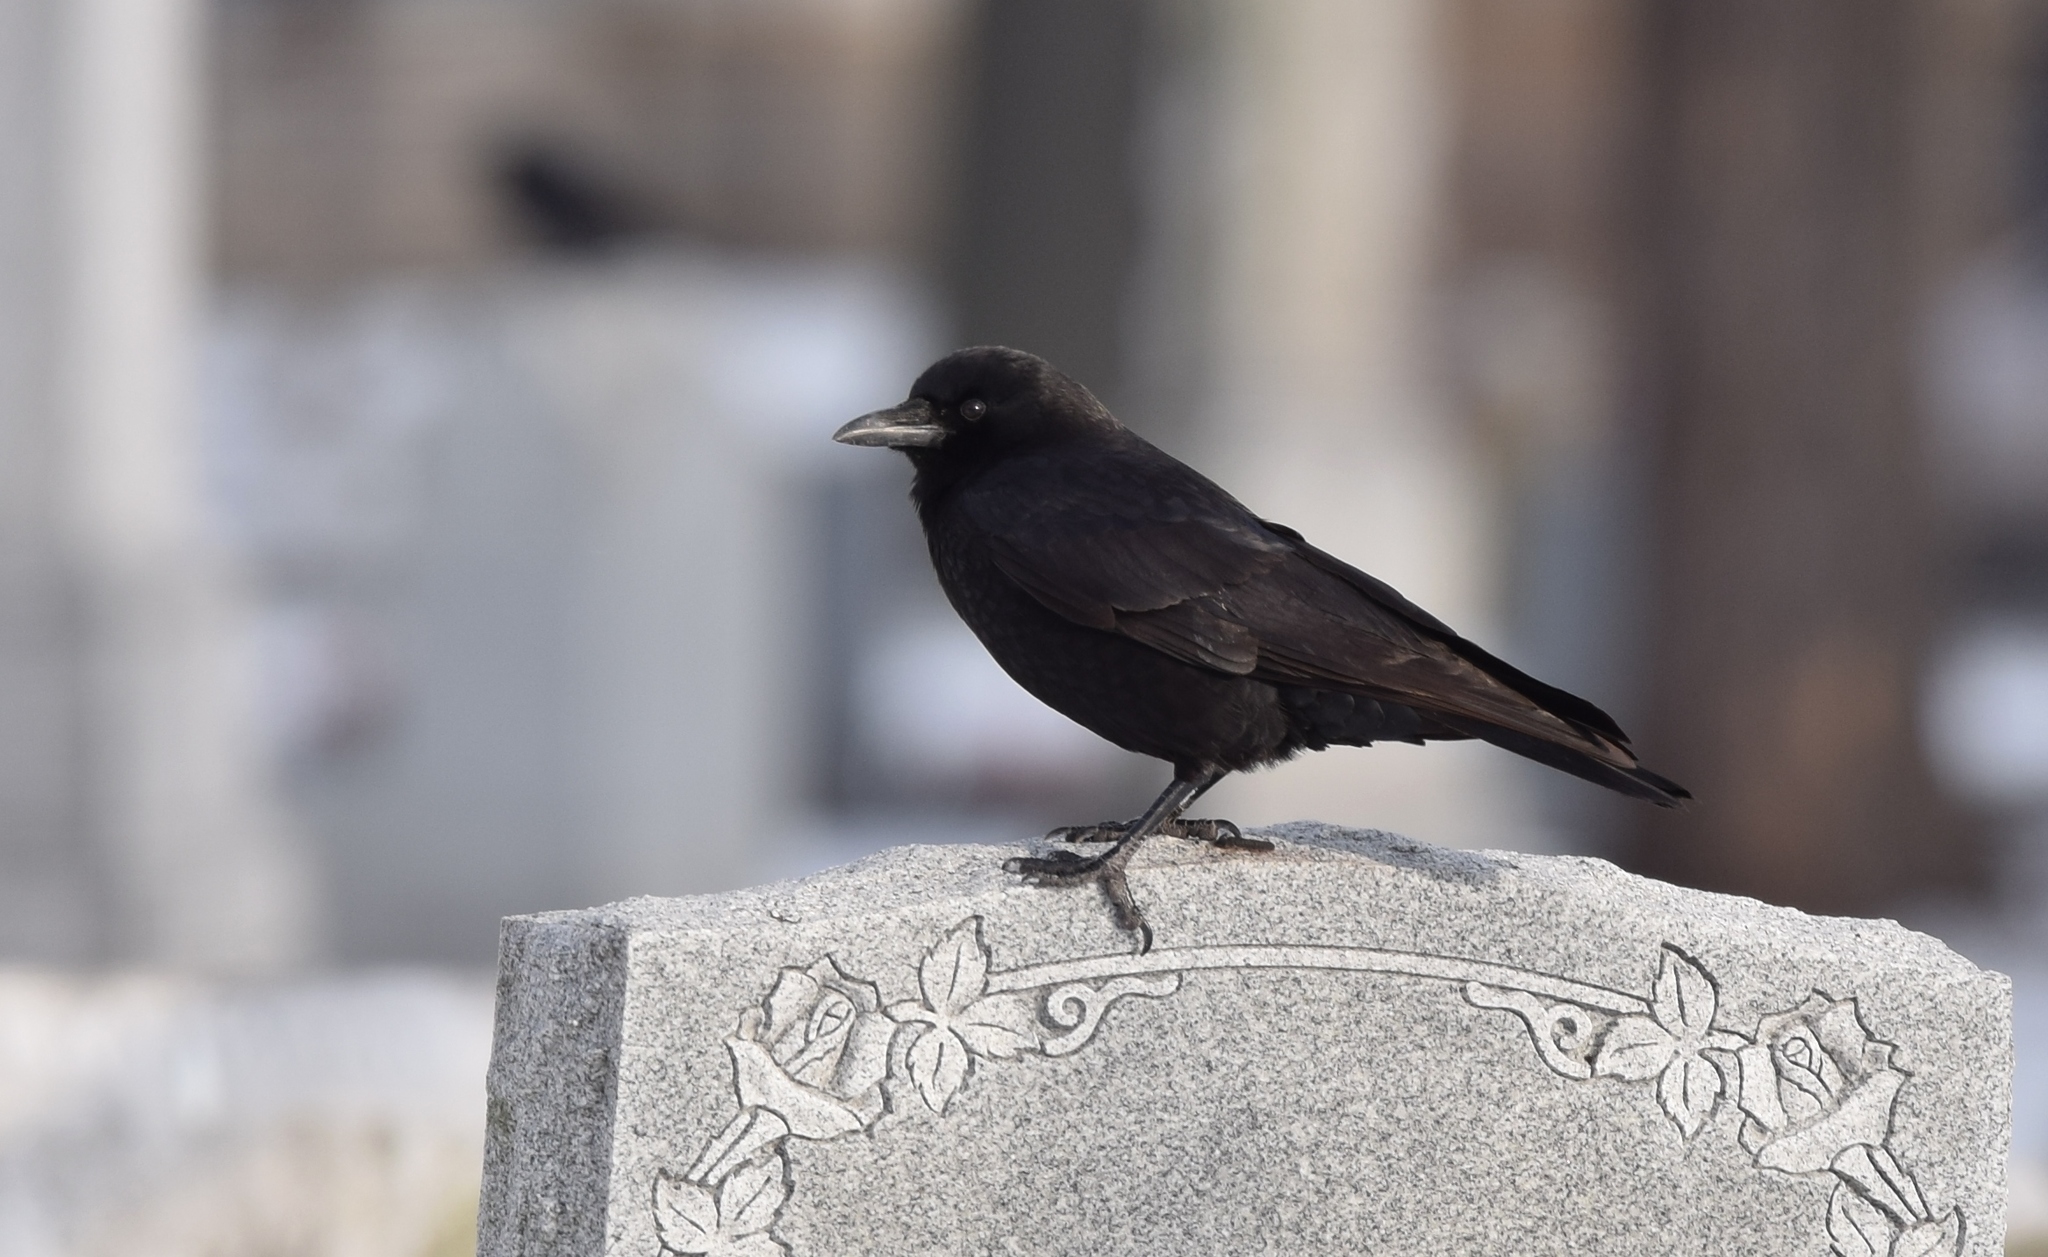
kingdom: Animalia
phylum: Chordata
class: Aves
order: Passeriformes
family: Corvidae
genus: Corvus
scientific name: Corvus brachyrhynchos
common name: American crow
